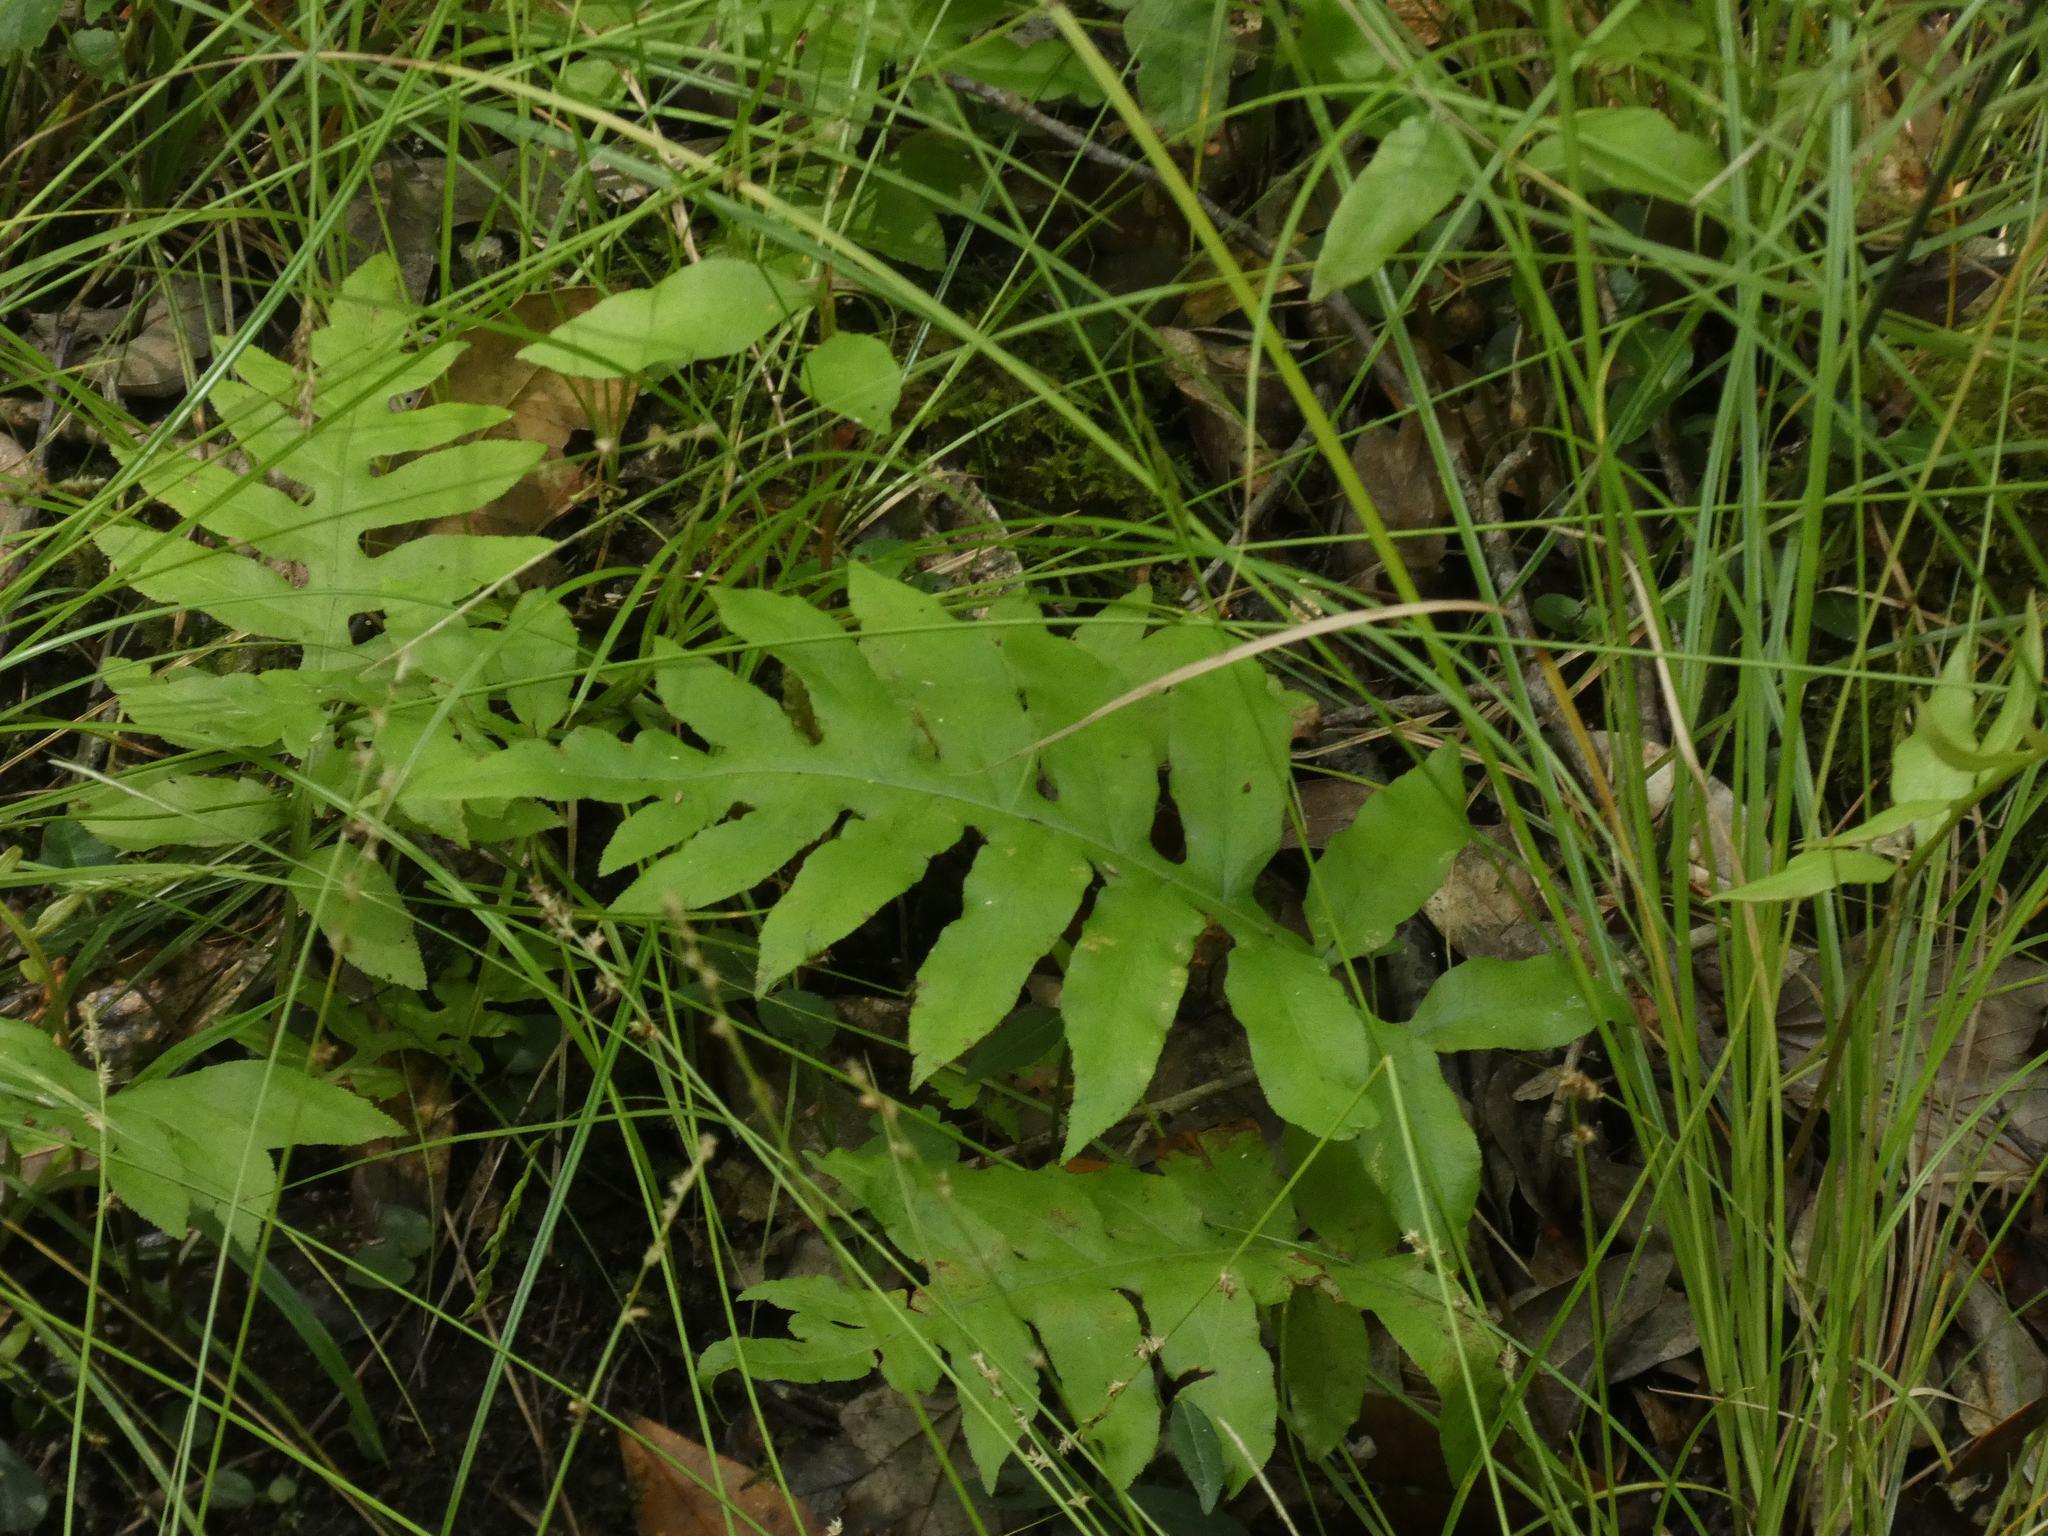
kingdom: Plantae
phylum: Tracheophyta
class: Polypodiopsida
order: Polypodiales
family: Blechnaceae
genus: Lorinseria
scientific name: Lorinseria areolata
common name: Dwarf chain fern
